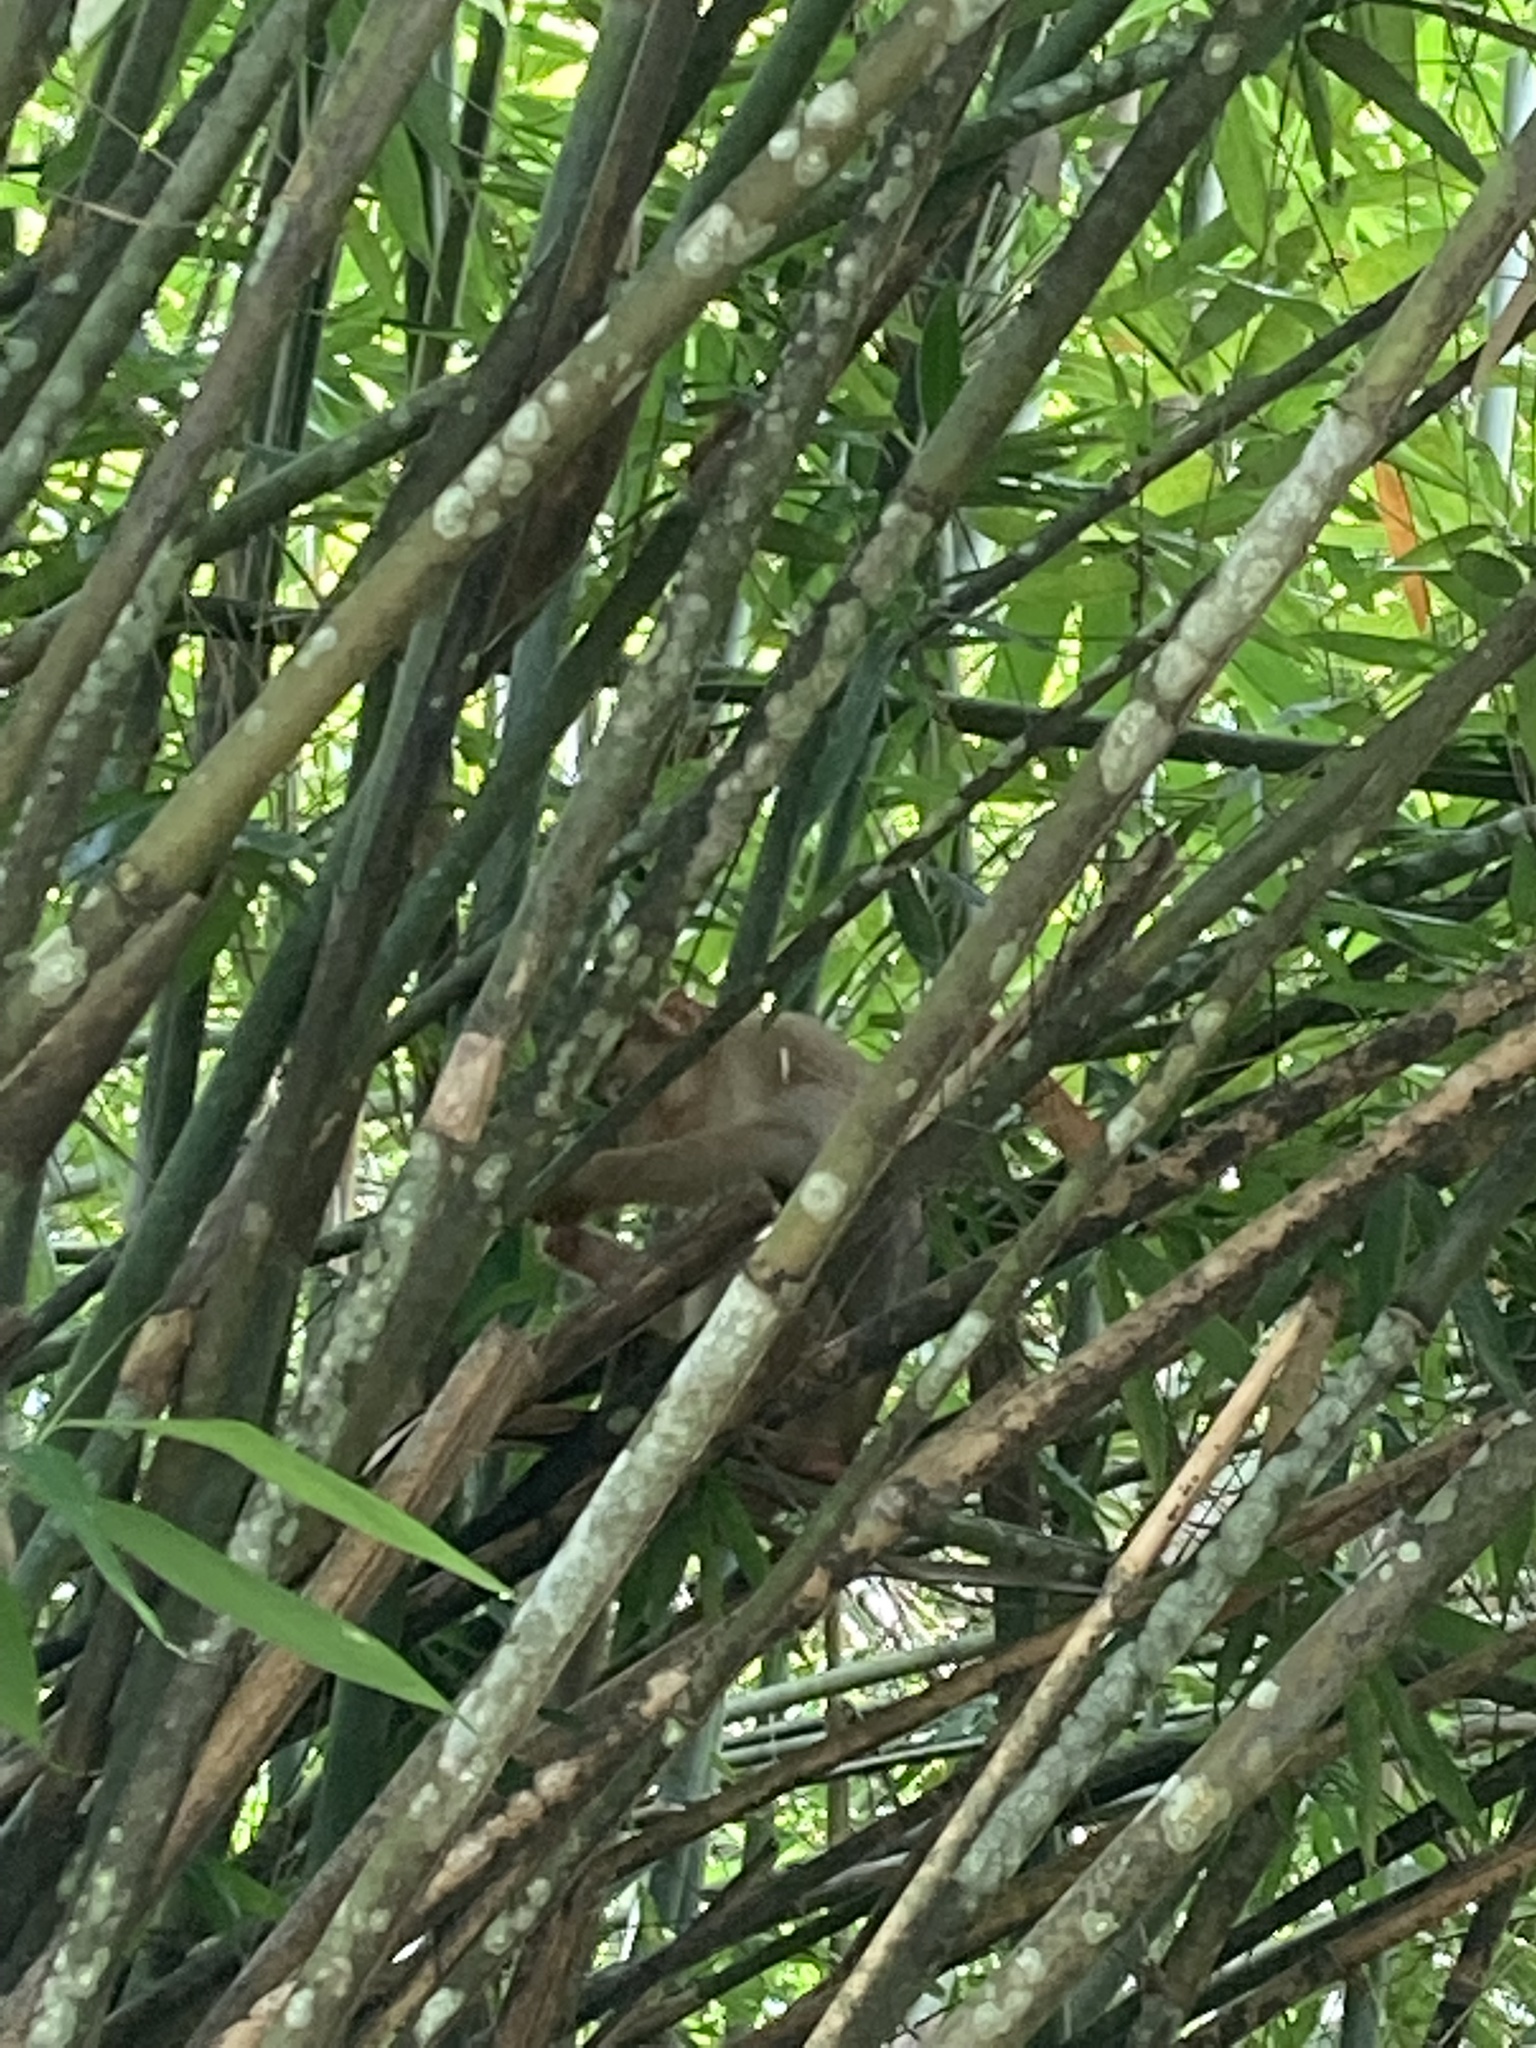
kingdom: Animalia
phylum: Chordata
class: Mammalia
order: Primates
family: Cercopithecidae
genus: Macaca
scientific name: Macaca nemestrina
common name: Southern pig-tailed macaque
